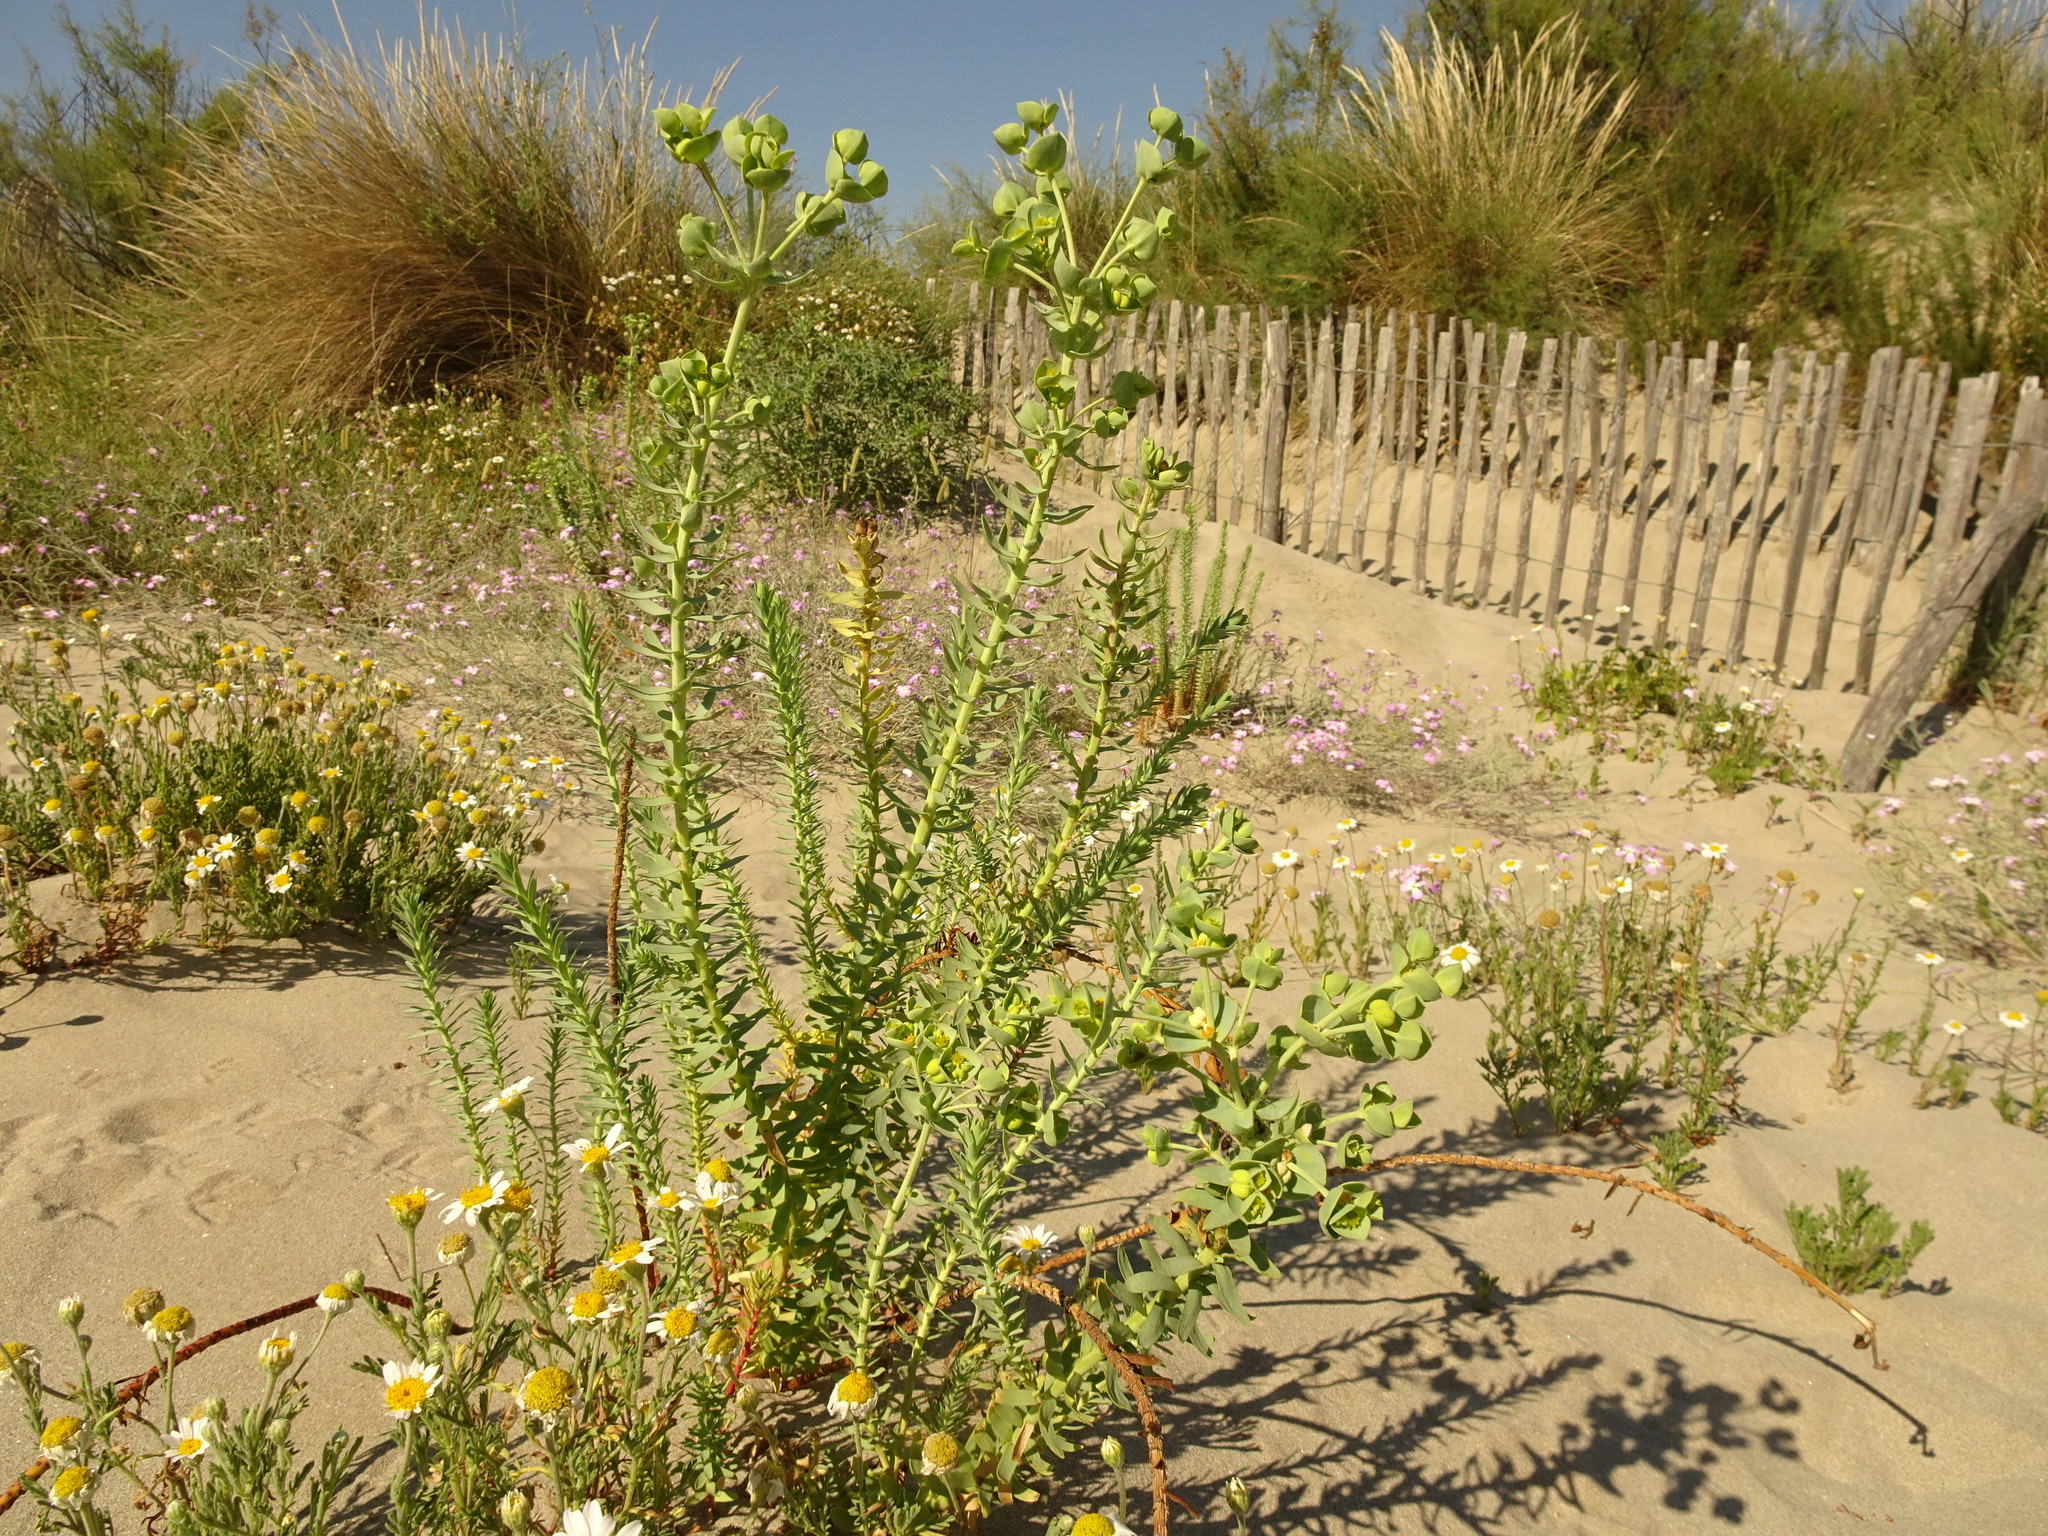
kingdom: Plantae
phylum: Tracheophyta
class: Magnoliopsida
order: Malpighiales
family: Euphorbiaceae
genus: Euphorbia
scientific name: Euphorbia paralias
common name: Sea spurge
